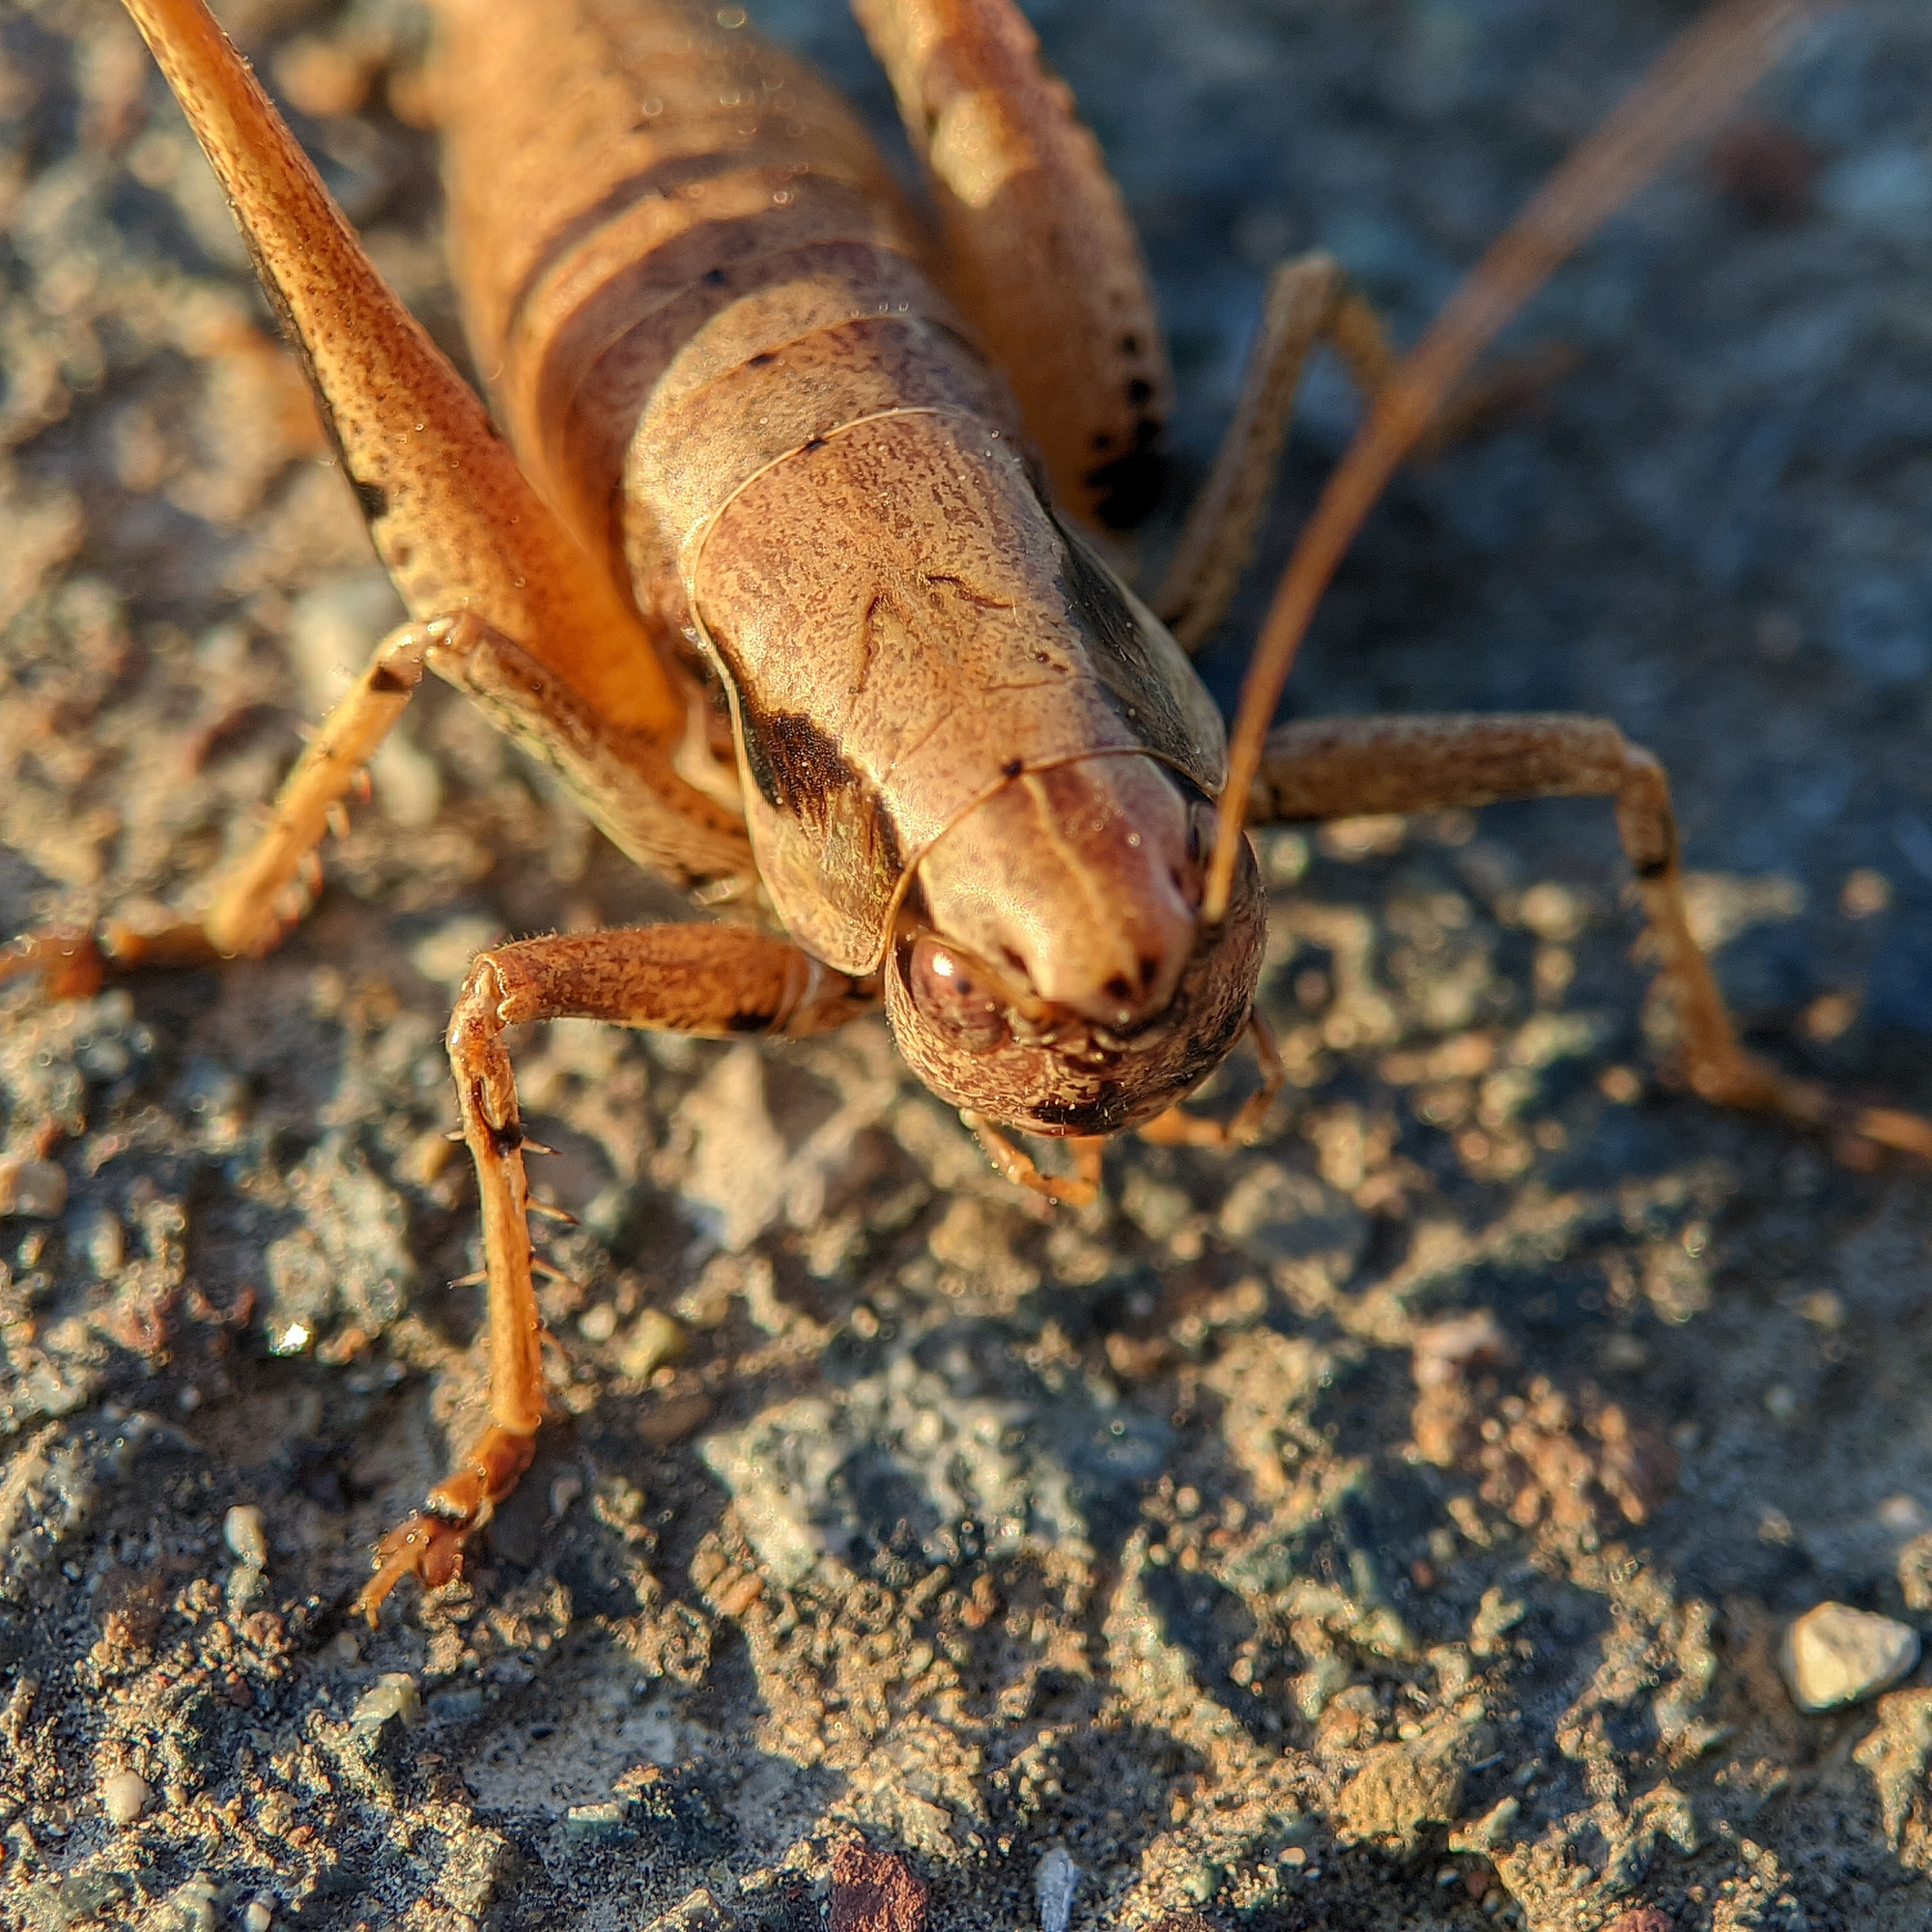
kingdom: Animalia
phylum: Arthropoda
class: Insecta
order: Orthoptera
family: Tettigoniidae
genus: Pholidoptera
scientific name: Pholidoptera griseoaptera
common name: Dark bush-cricket
